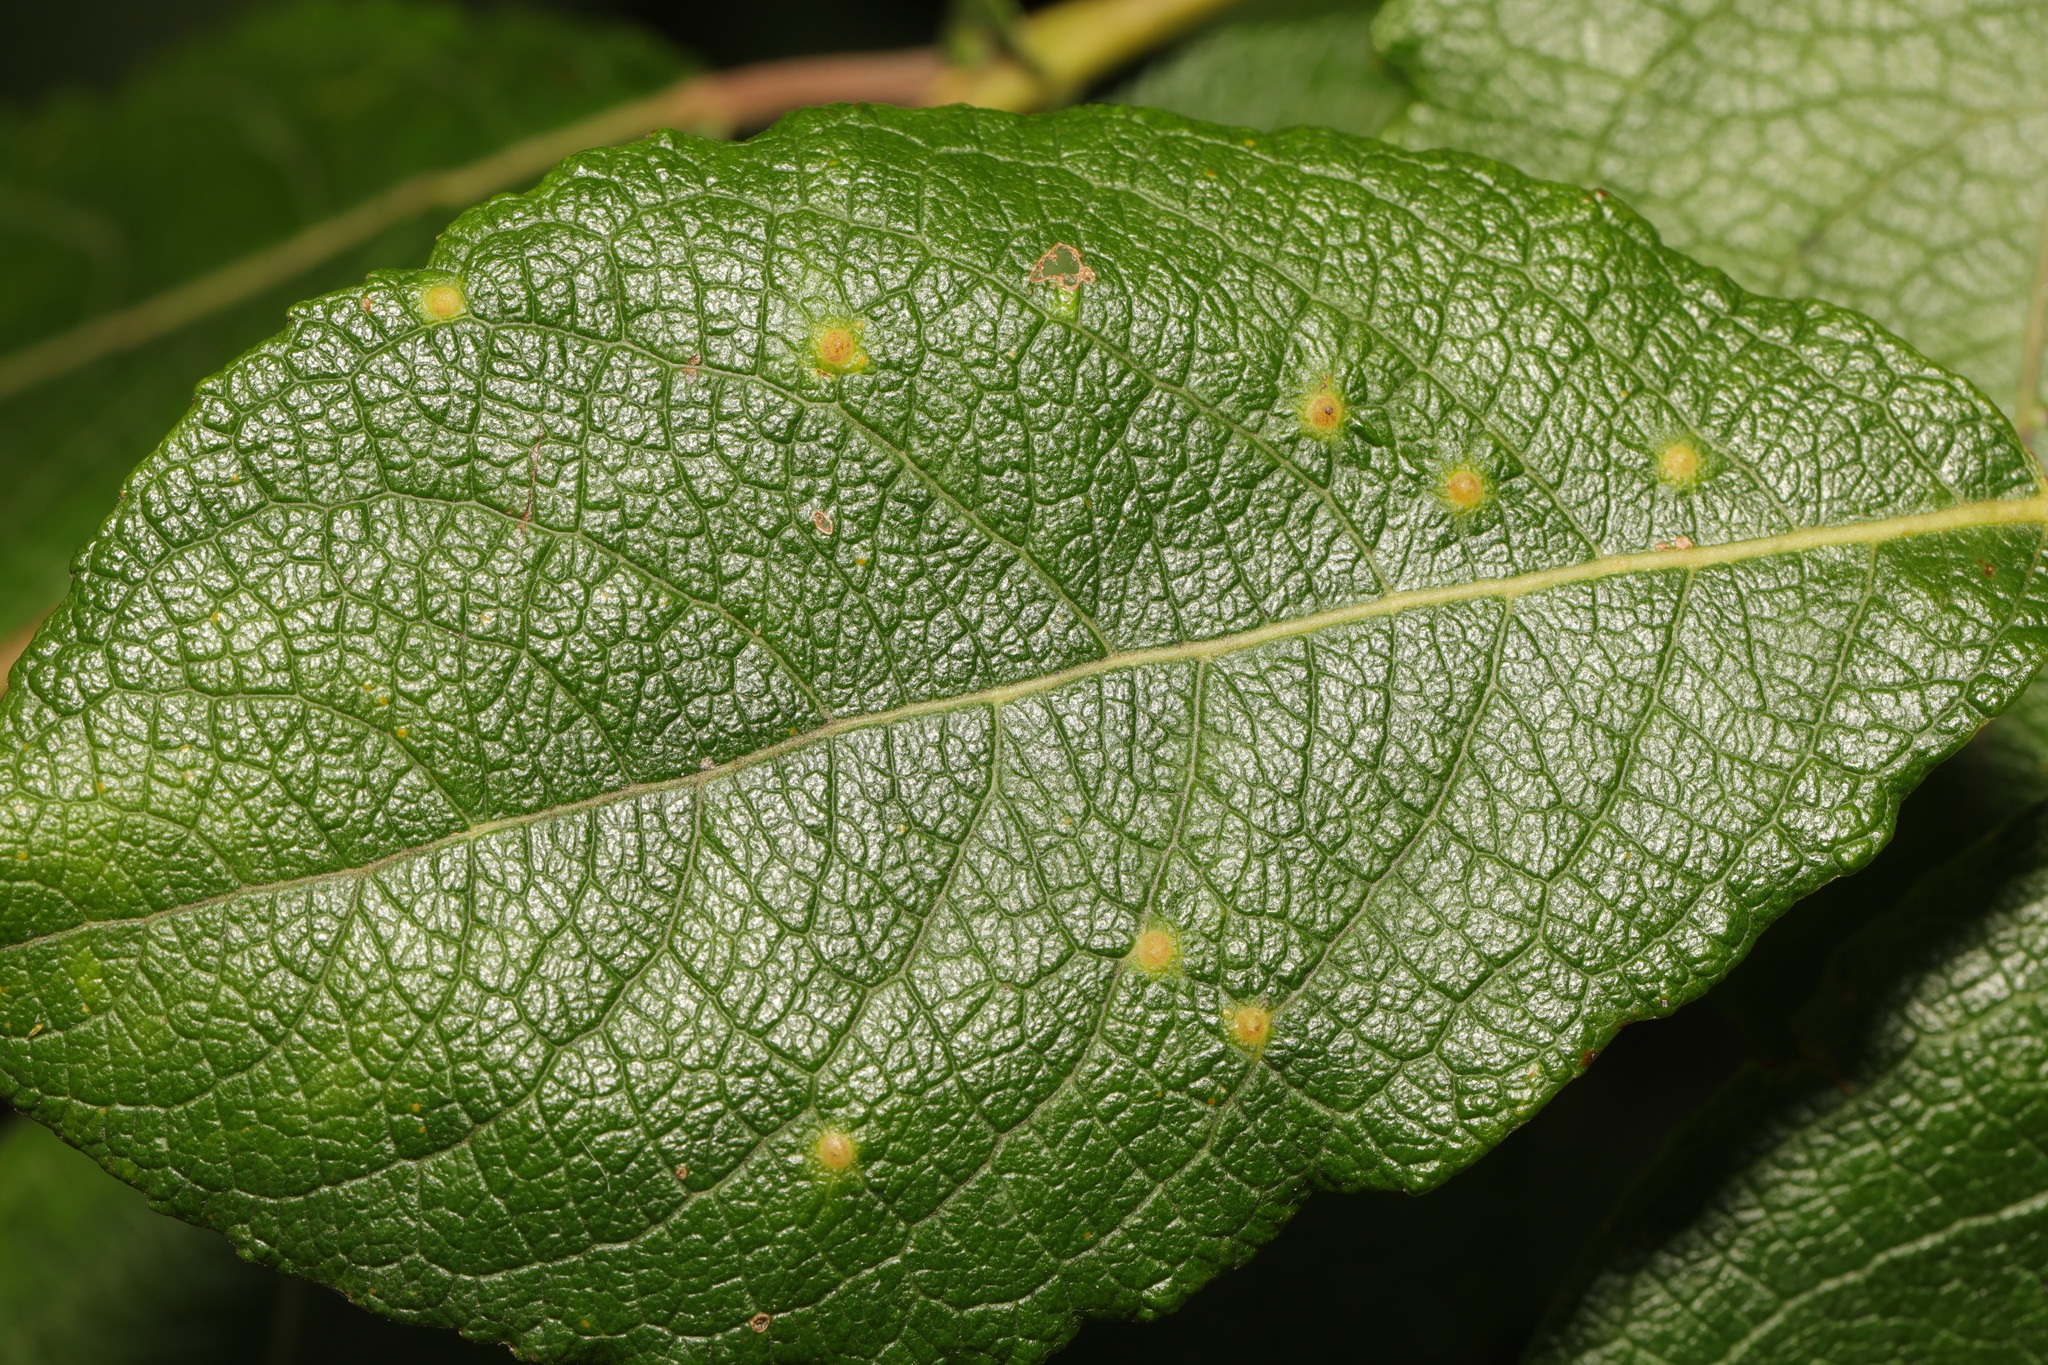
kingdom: Animalia
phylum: Arthropoda
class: Insecta
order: Diptera
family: Cecidomyiidae
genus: Iteomyia
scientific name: Iteomyia capreae
